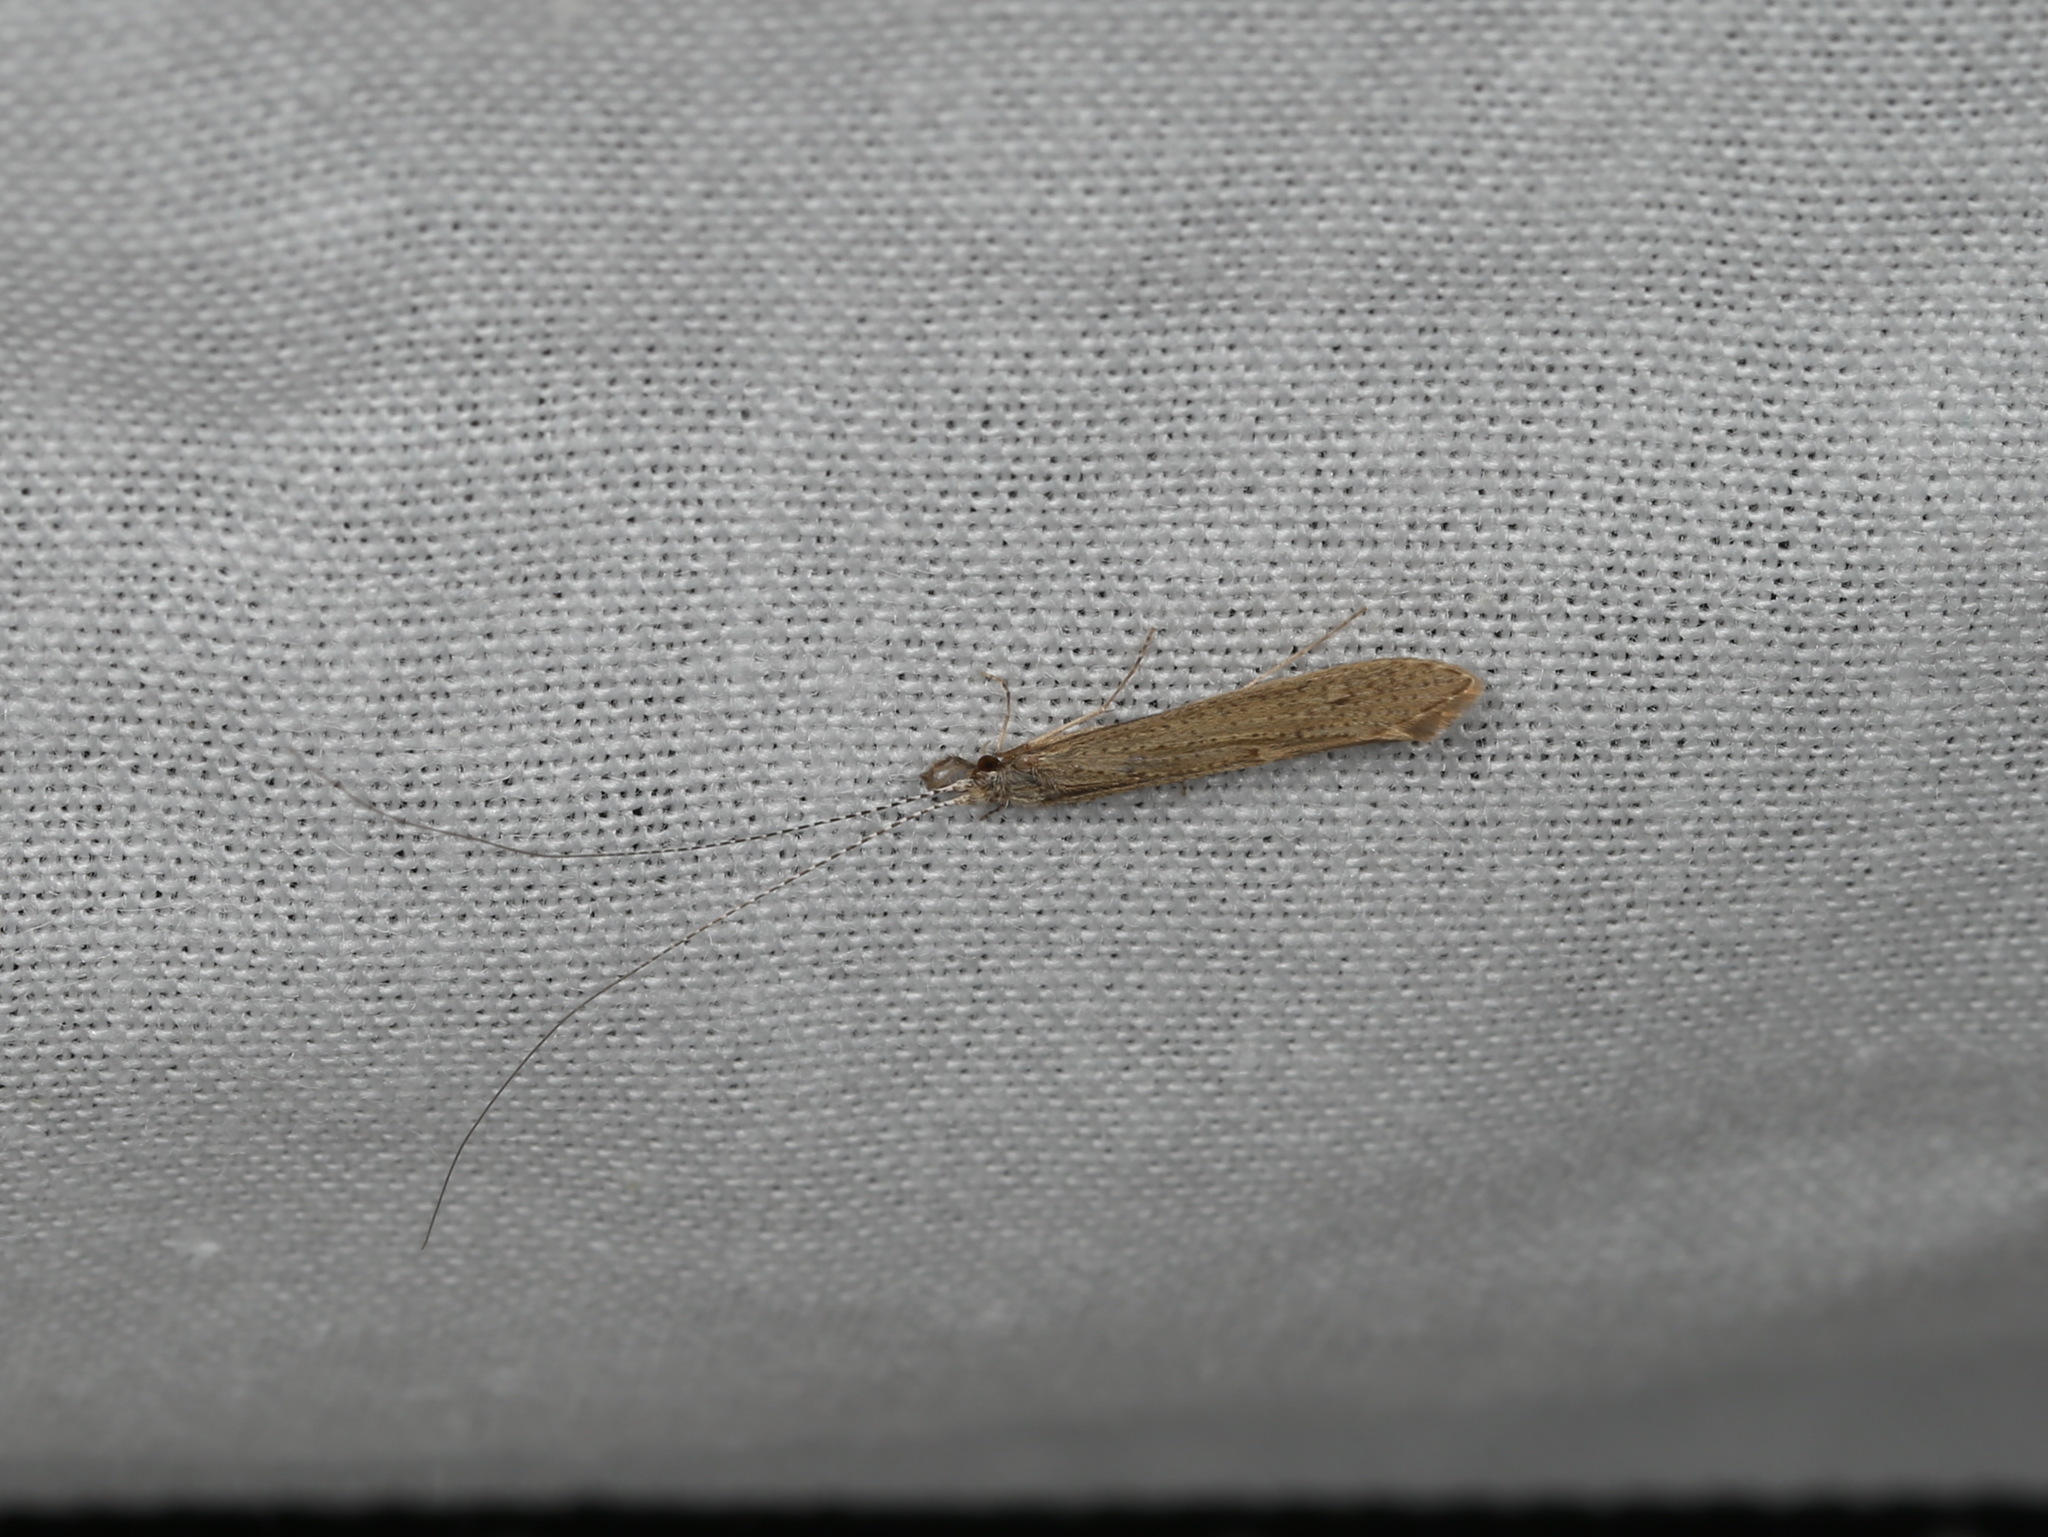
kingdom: Animalia
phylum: Arthropoda
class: Insecta
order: Trichoptera
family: Leptoceridae
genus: Leptocerus
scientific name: Leptocerus tineiformis
